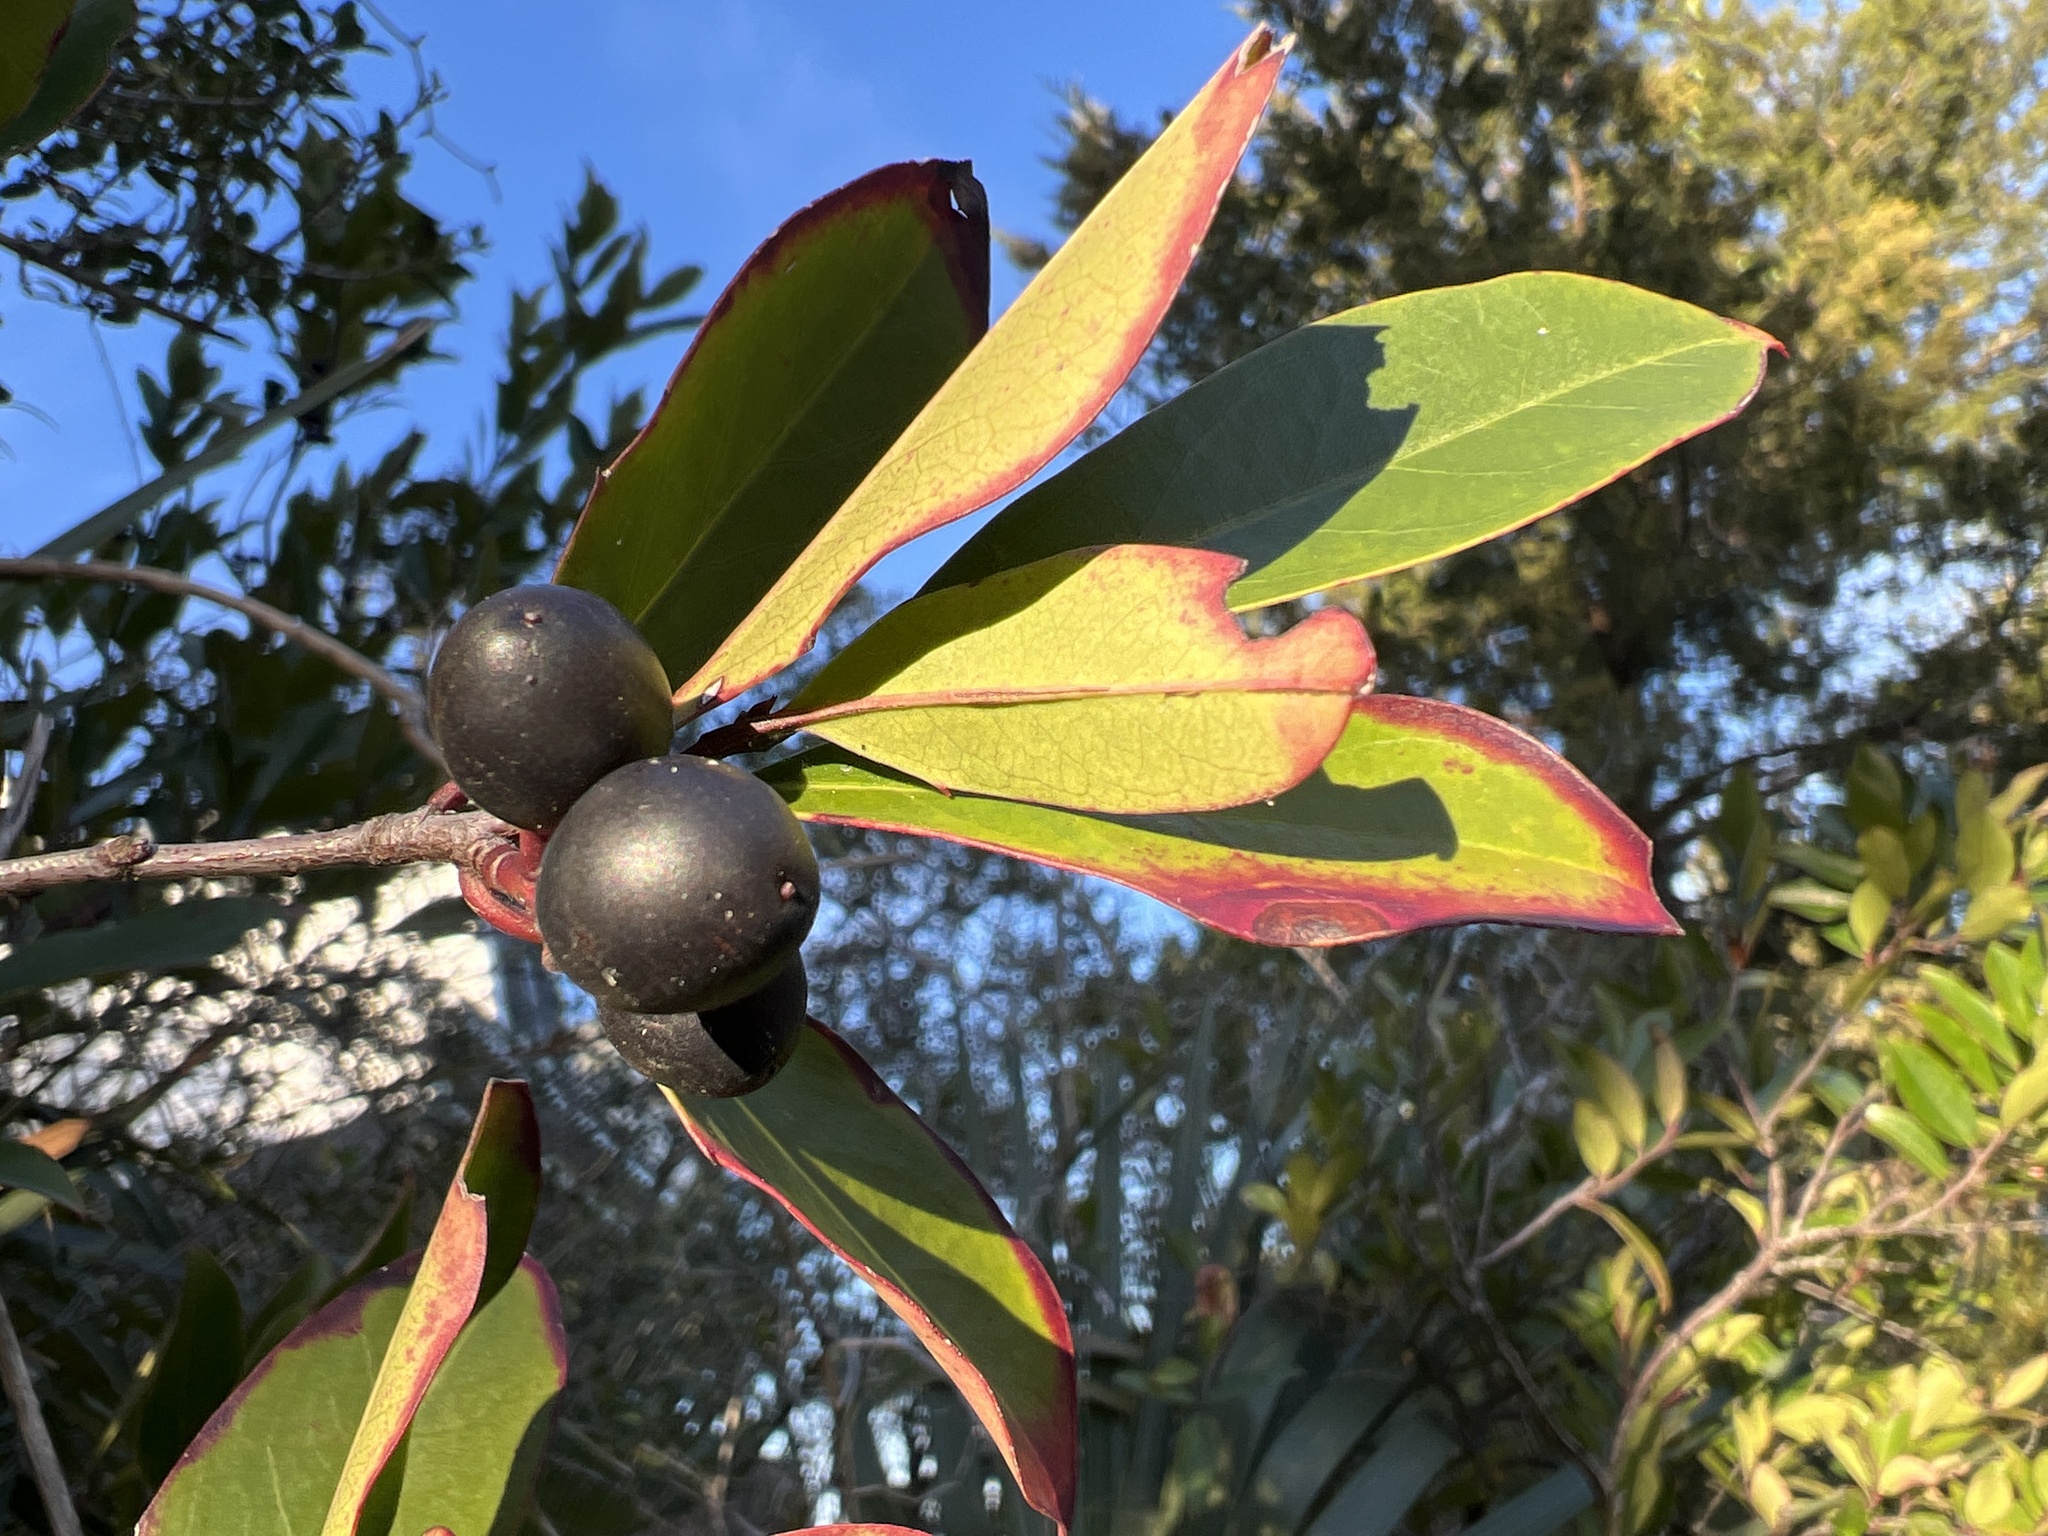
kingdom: Plantae
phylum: Tracheophyta
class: Magnoliopsida
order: Rosales
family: Rosaceae
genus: Prunus
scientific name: Prunus caroliniana
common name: Carolina laurel cherry
